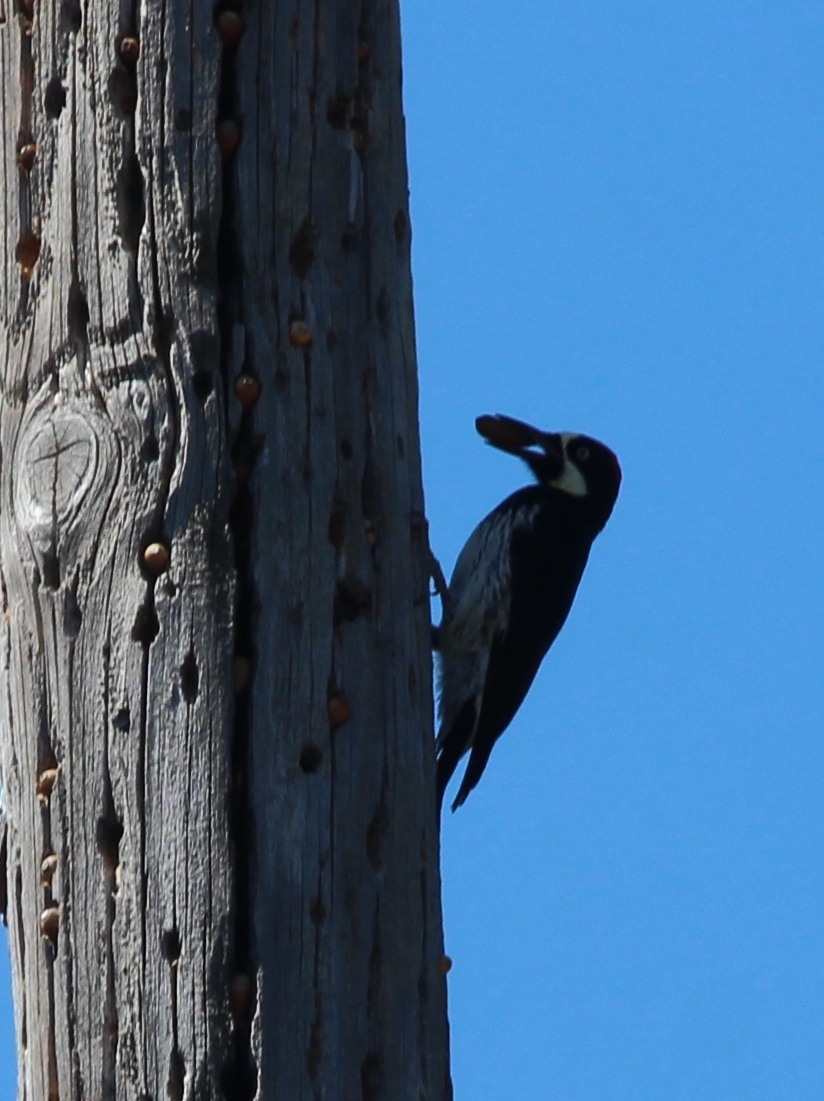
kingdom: Animalia
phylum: Chordata
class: Aves
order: Piciformes
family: Picidae
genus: Melanerpes
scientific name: Melanerpes formicivorus
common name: Acorn woodpecker
